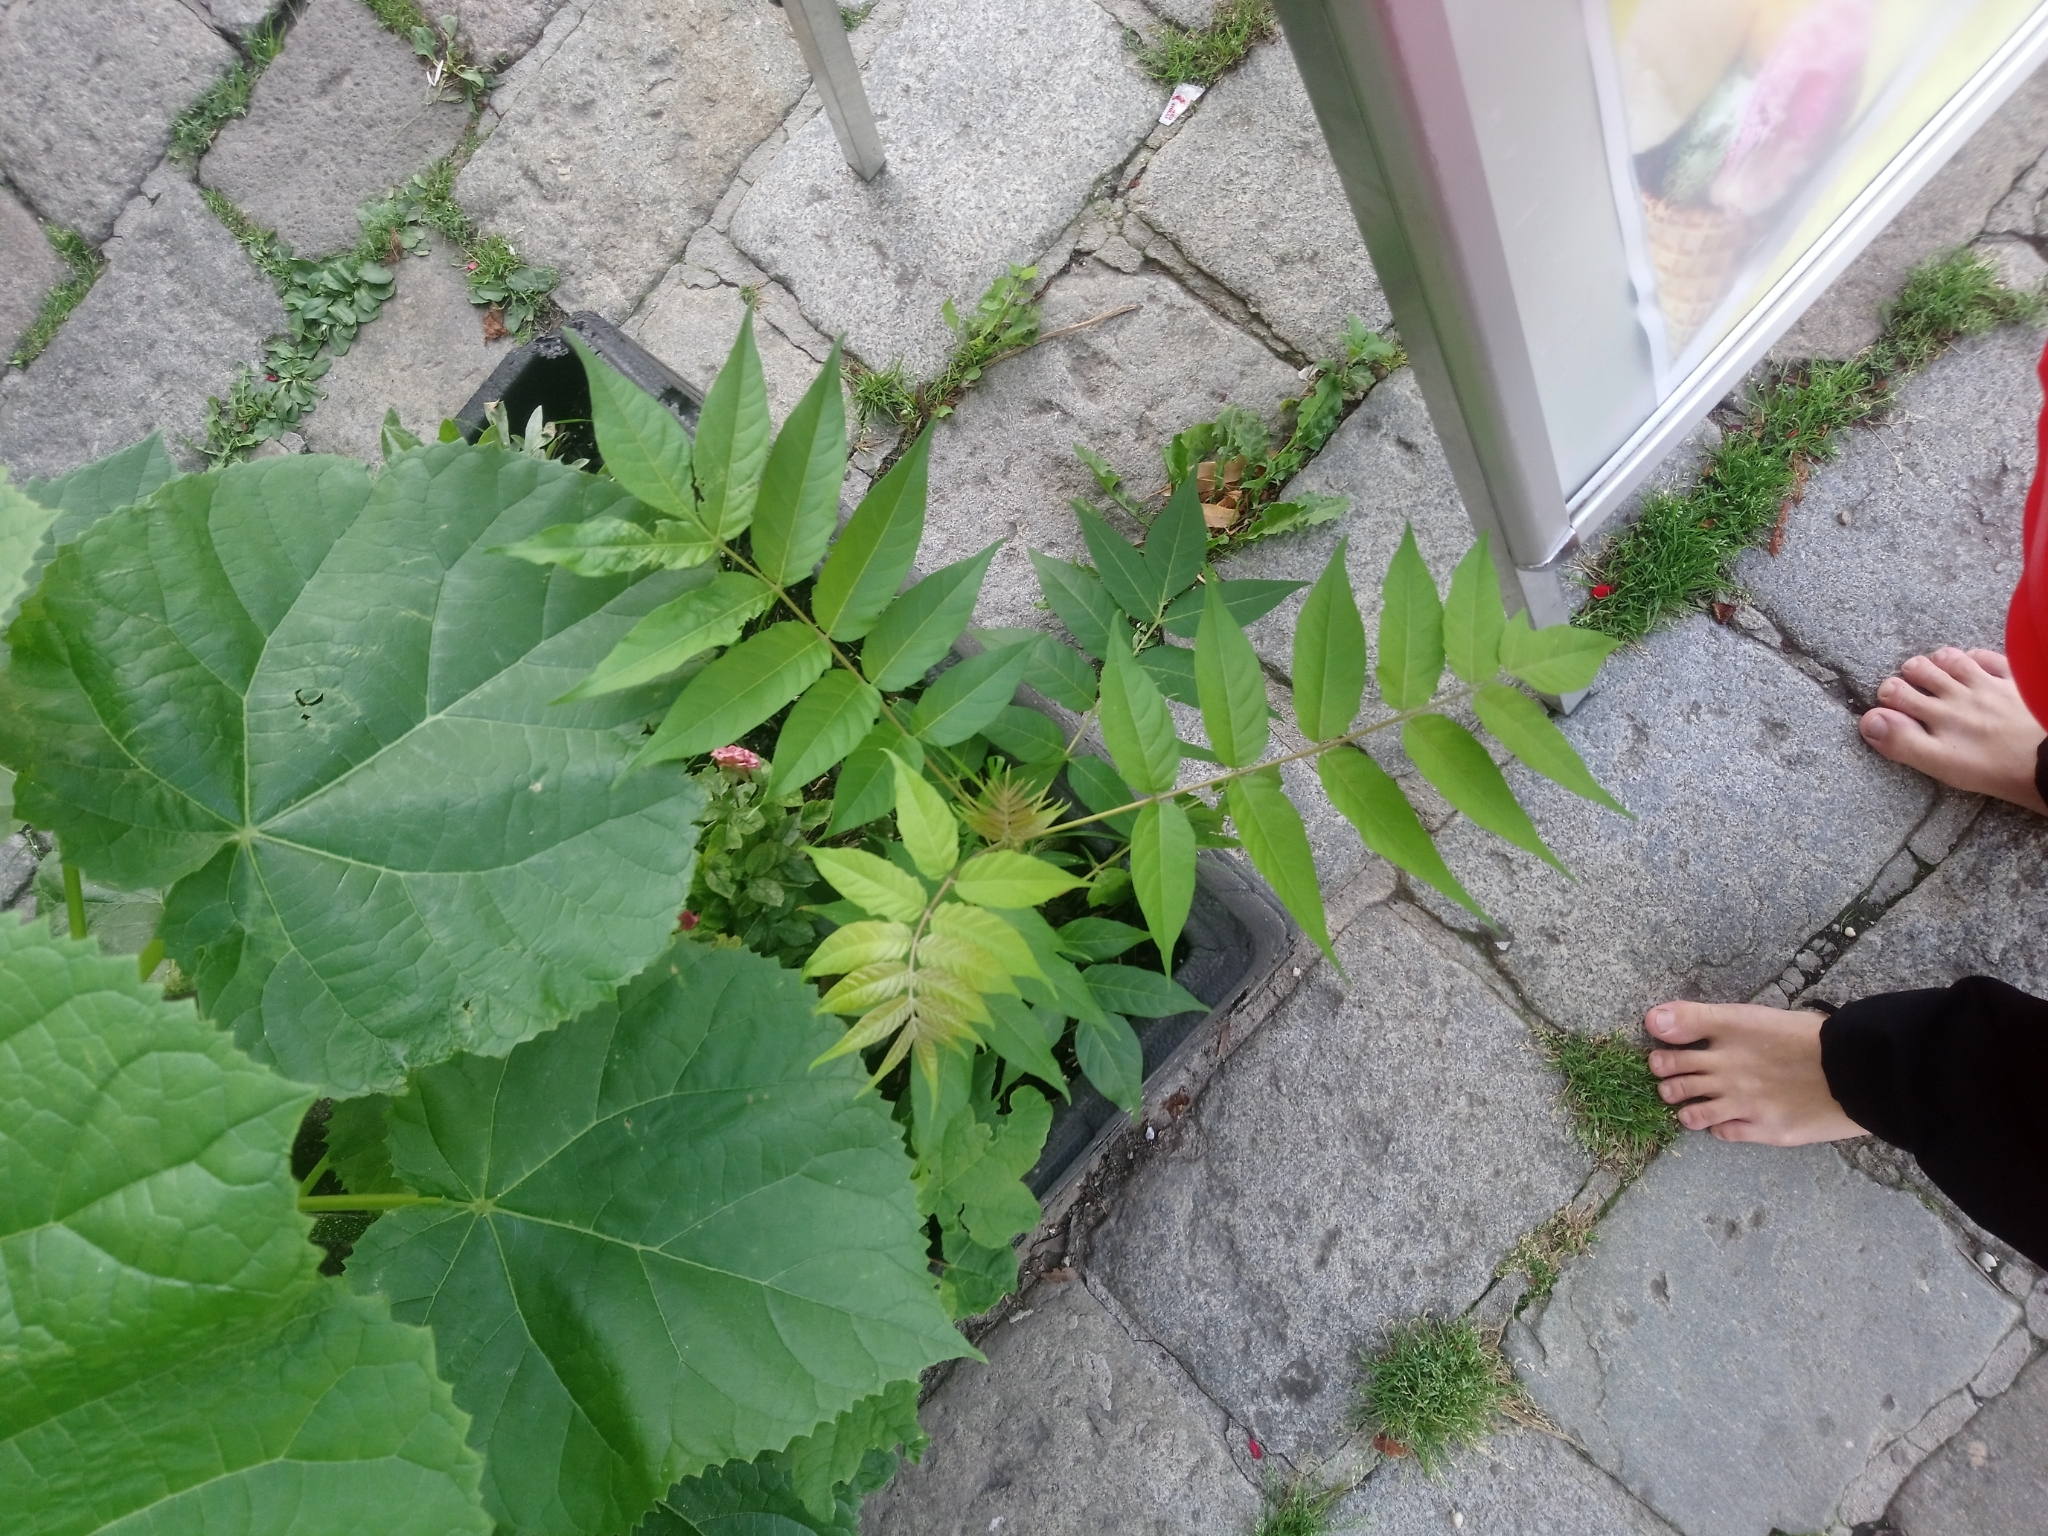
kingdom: Plantae
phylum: Tracheophyta
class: Magnoliopsida
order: Sapindales
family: Simaroubaceae
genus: Ailanthus
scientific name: Ailanthus altissima
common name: Tree-of-heaven
